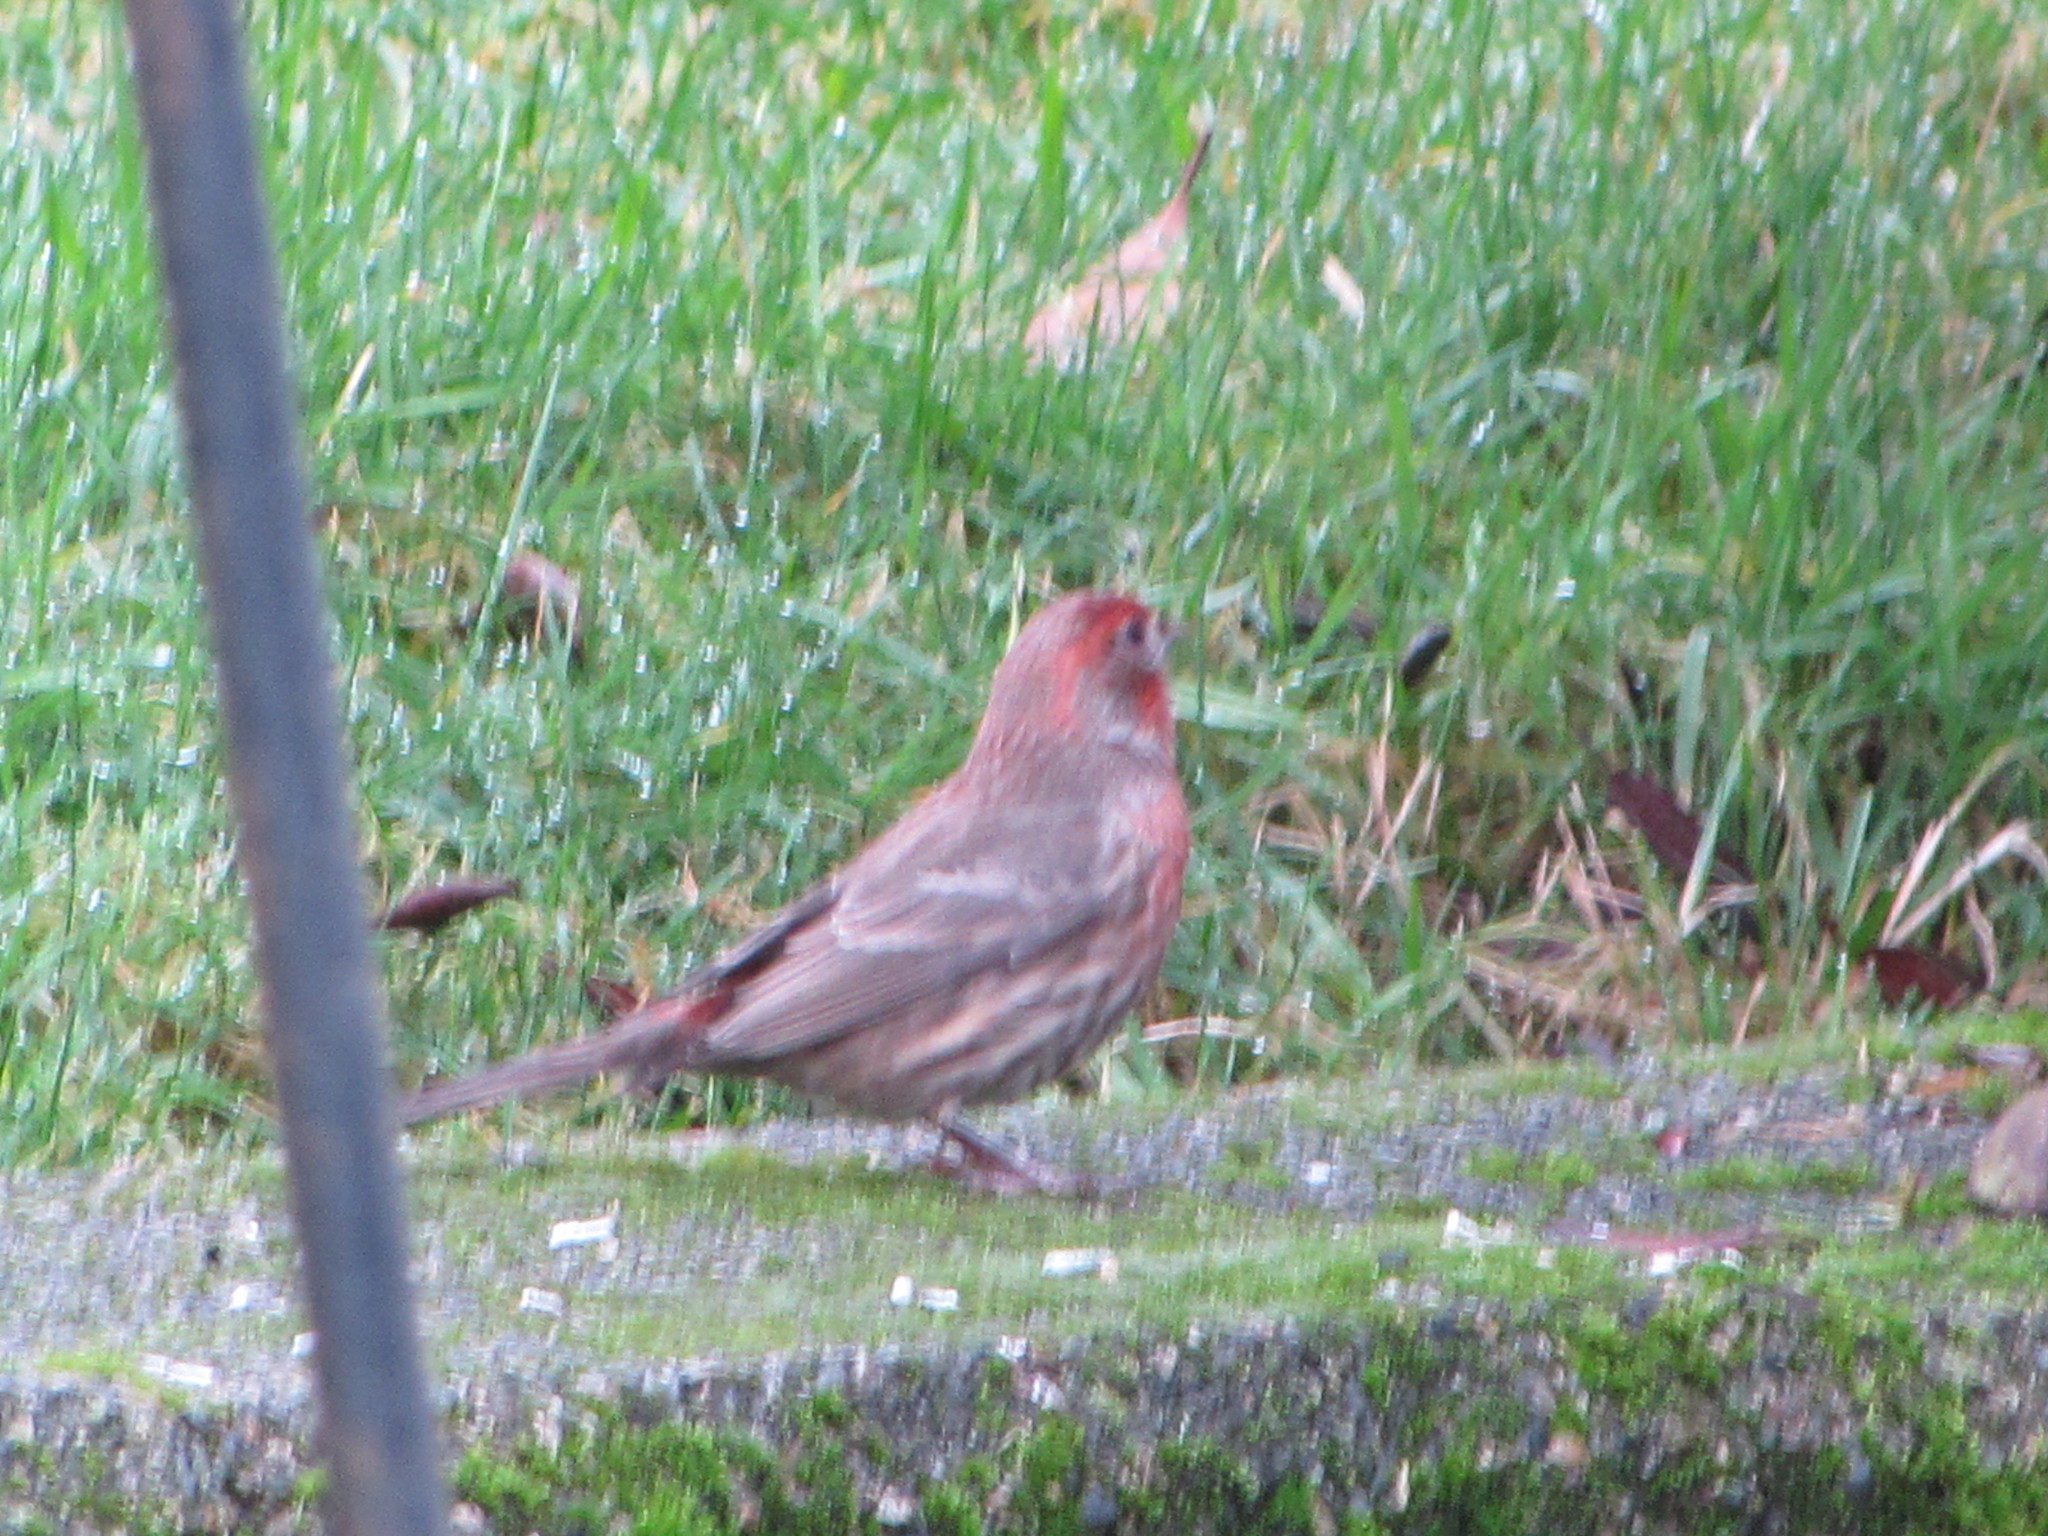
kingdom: Animalia
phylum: Chordata
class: Aves
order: Passeriformes
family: Fringillidae
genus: Haemorhous
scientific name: Haemorhous mexicanus
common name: House finch
